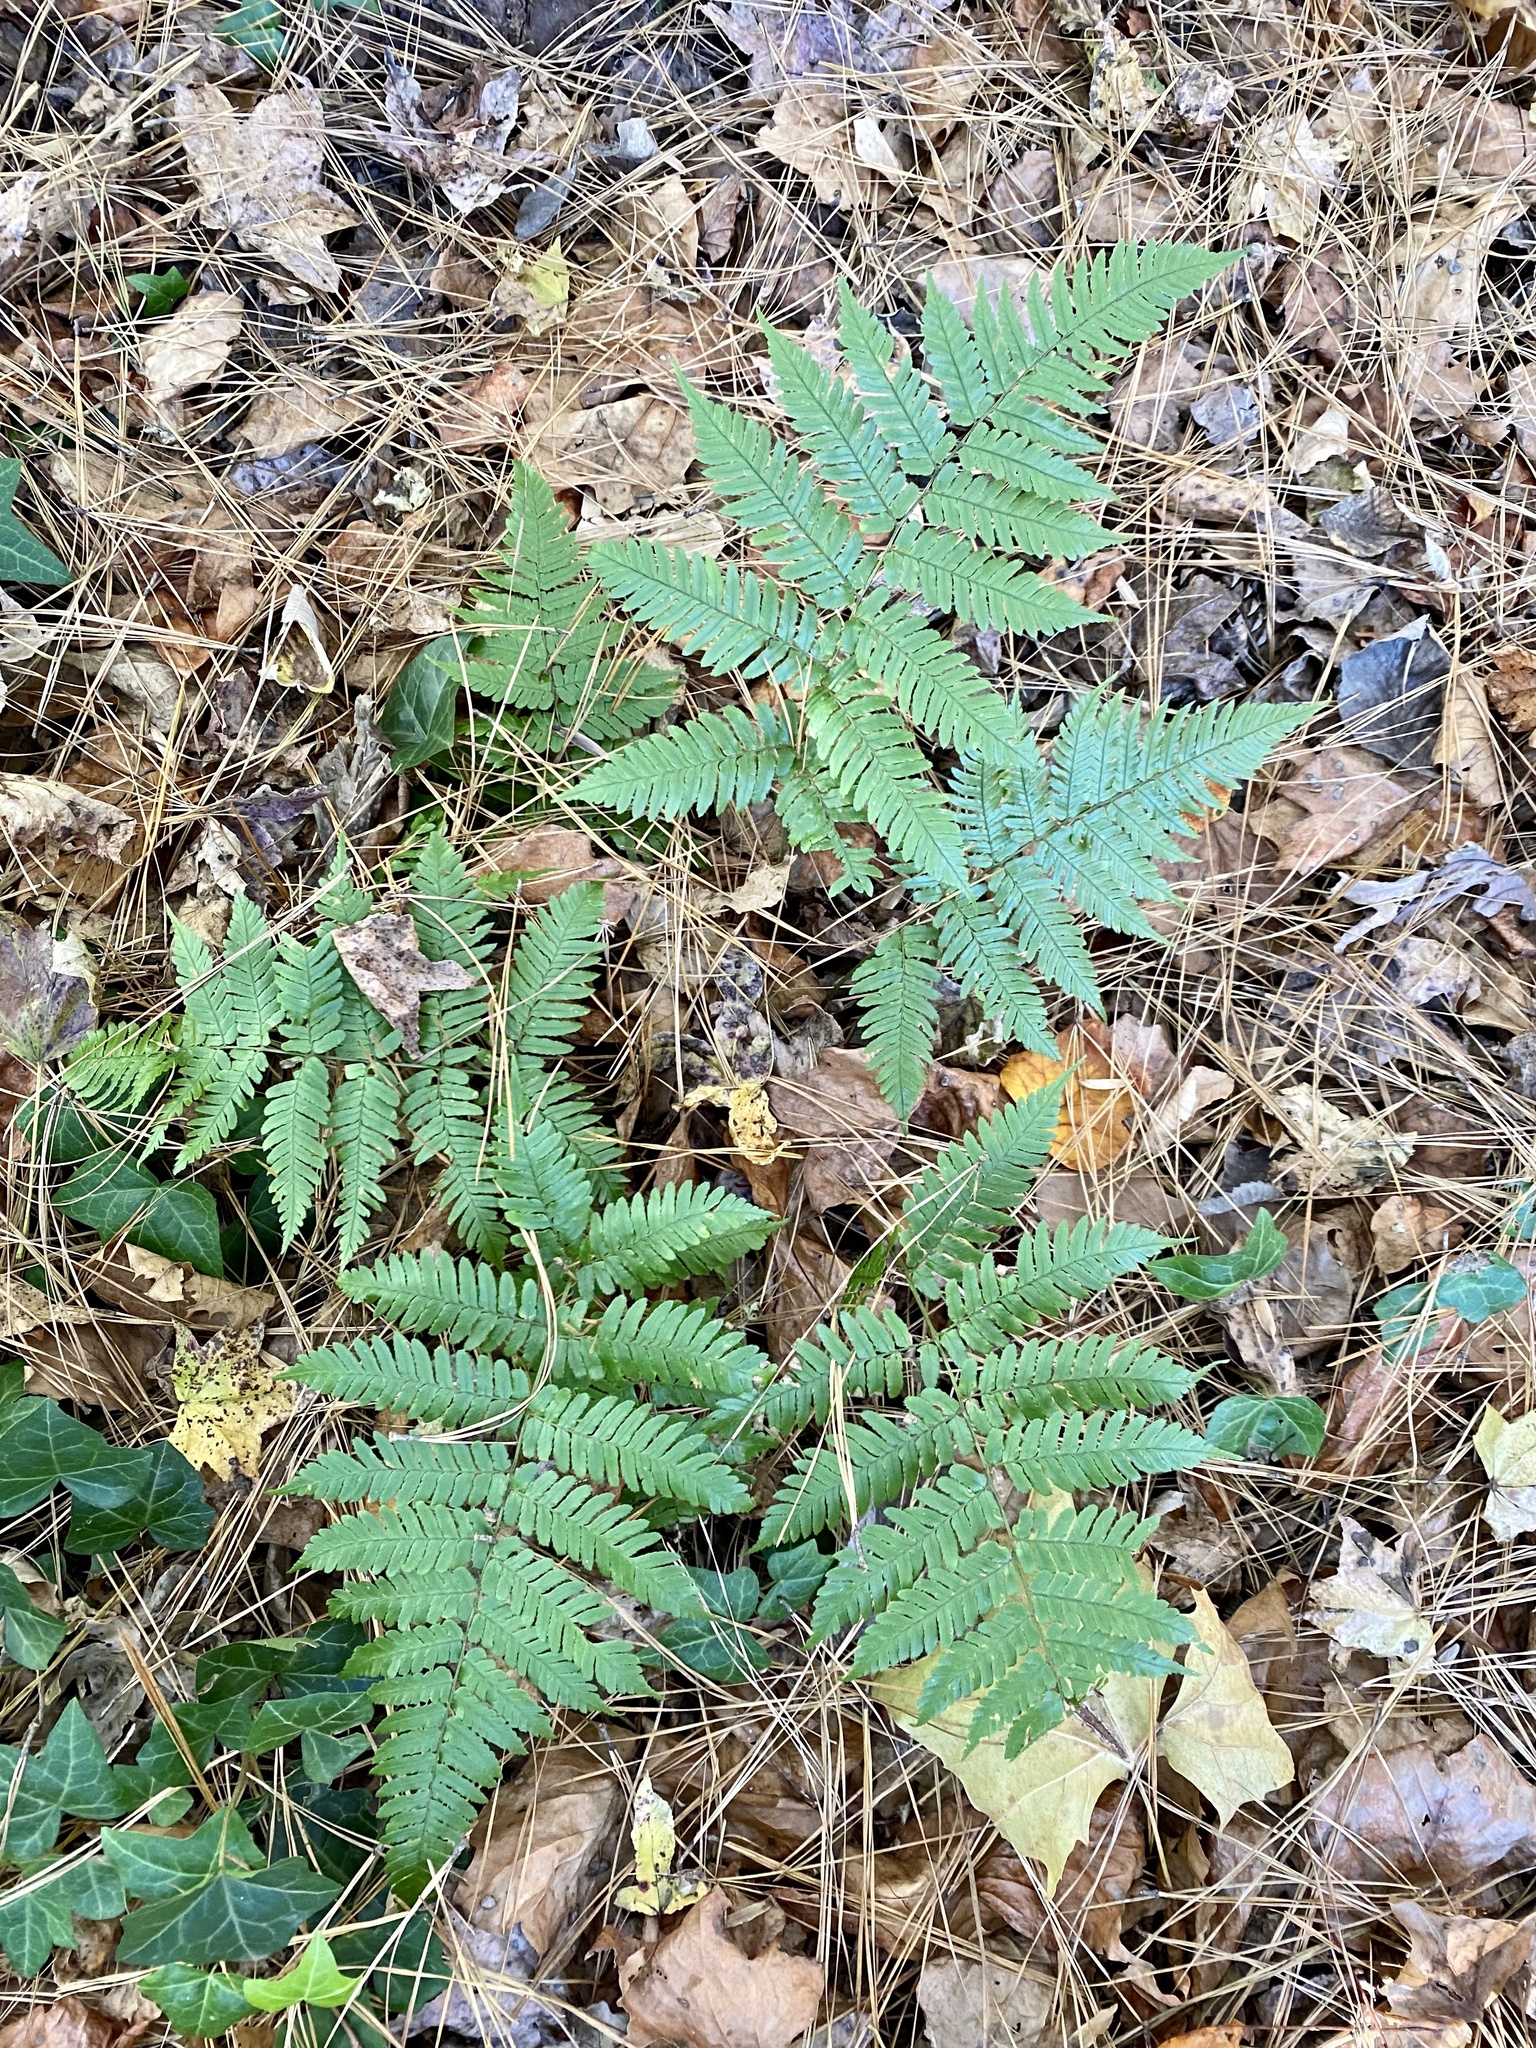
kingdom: Plantae
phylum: Tracheophyta
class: Polypodiopsida
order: Polypodiales
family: Dryopteridaceae
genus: Dryopteris
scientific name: Dryopteris erythrosora
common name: Autumn fern
